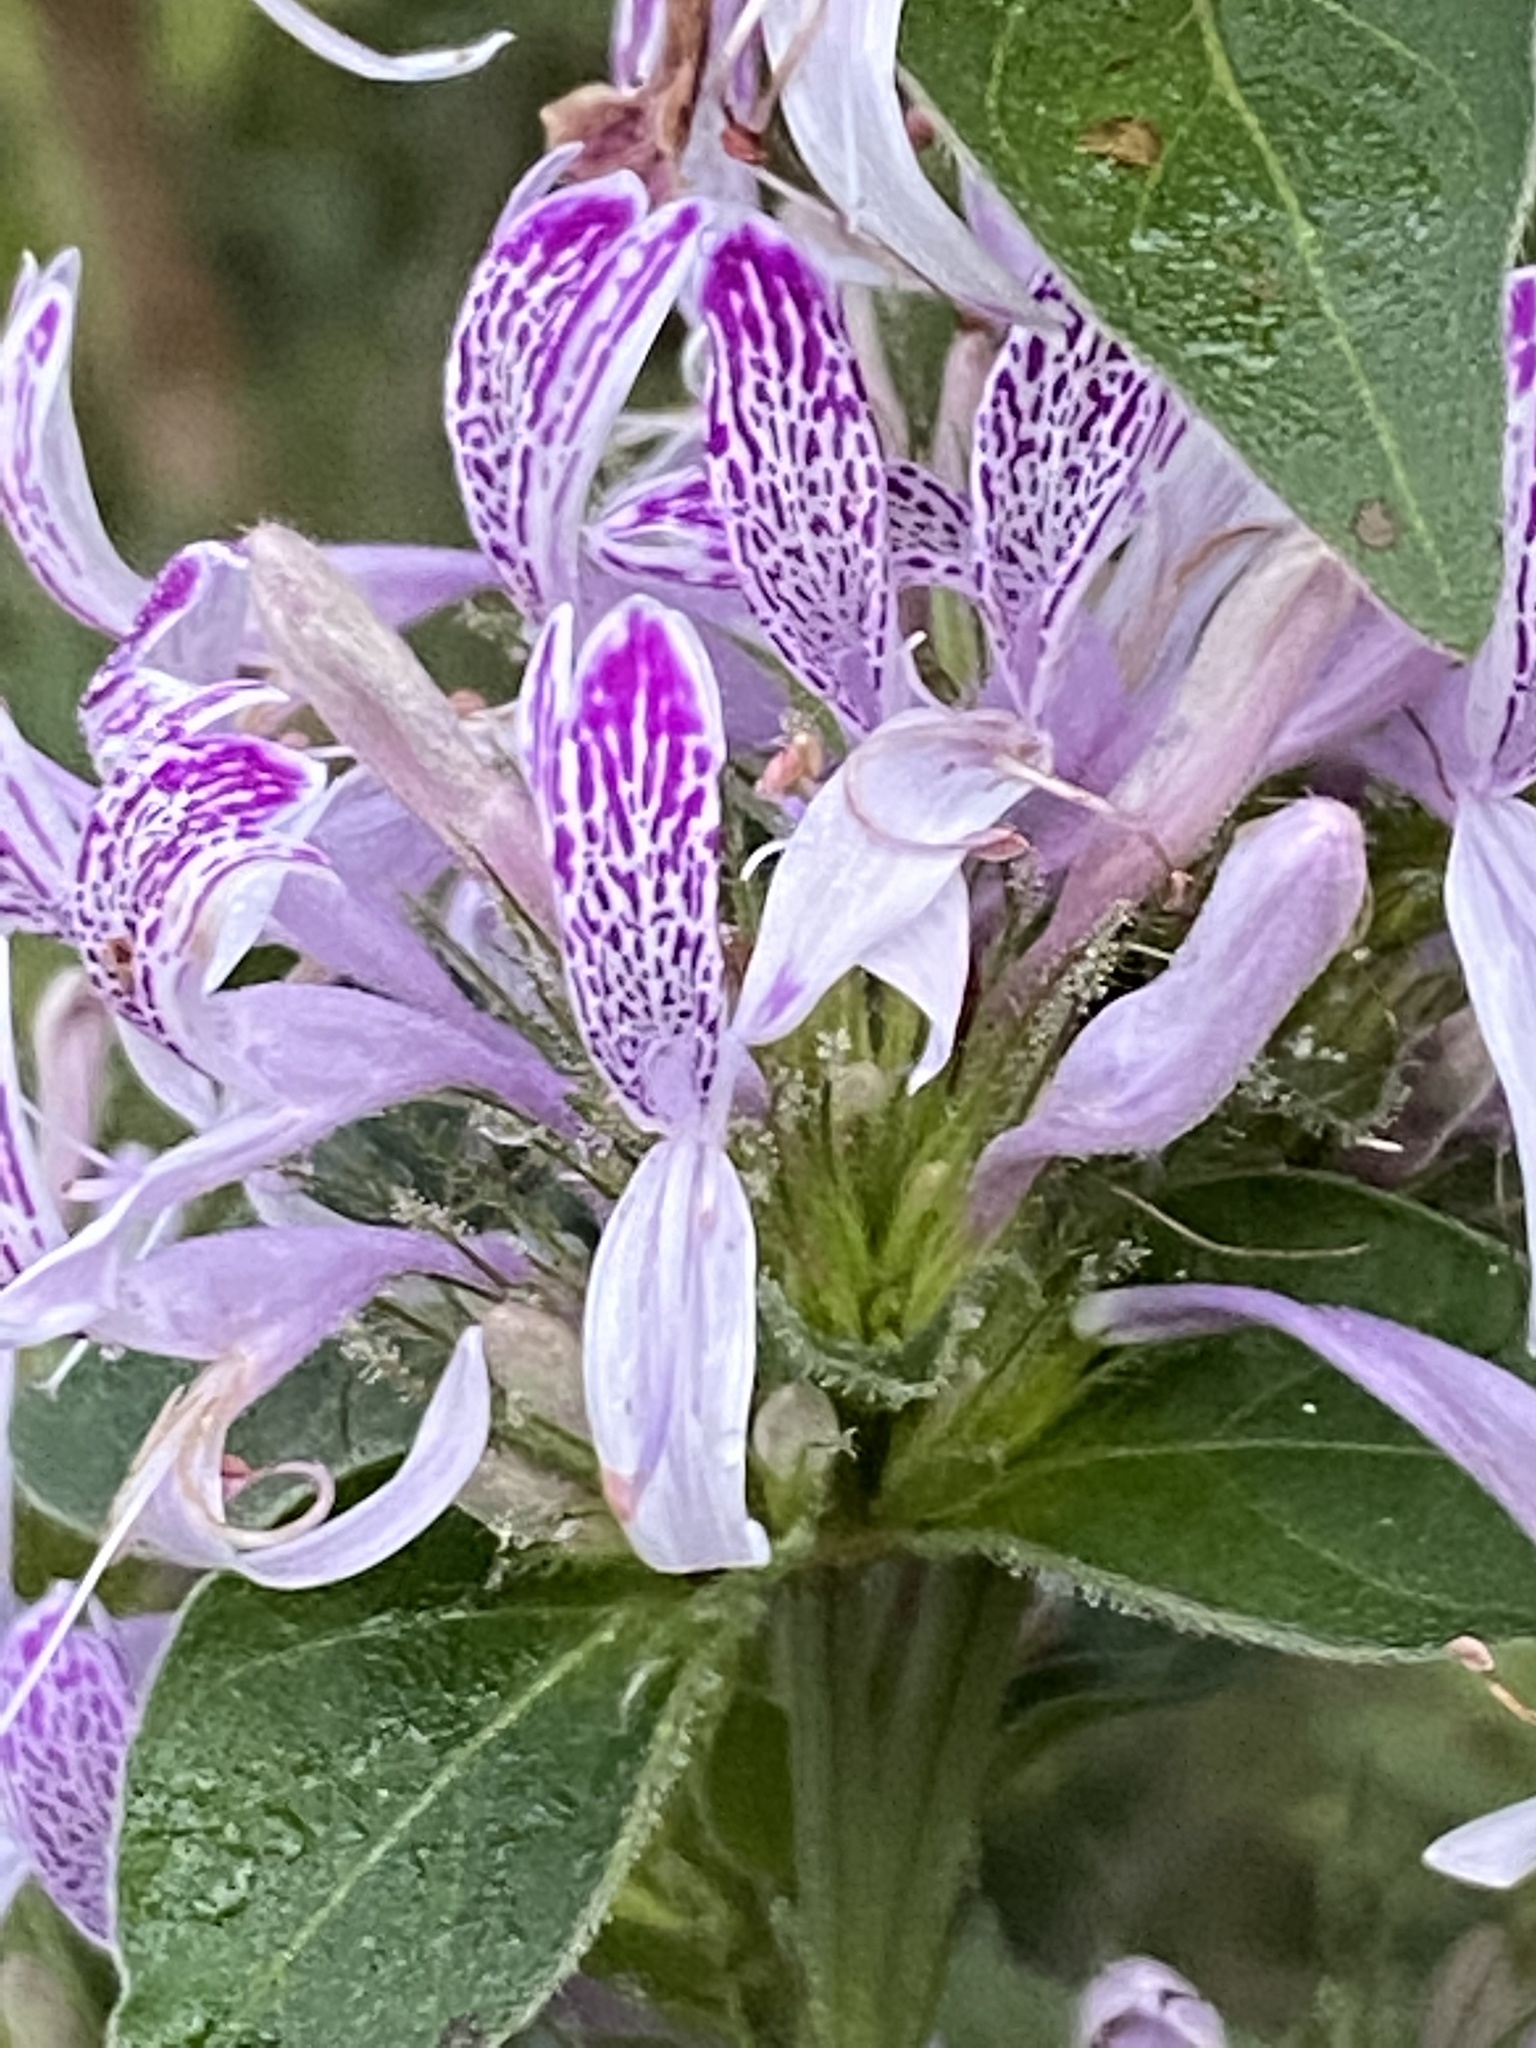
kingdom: Plantae
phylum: Tracheophyta
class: Magnoliopsida
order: Lamiales
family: Acanthaceae
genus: Hypoestes
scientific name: Hypoestes aristata
